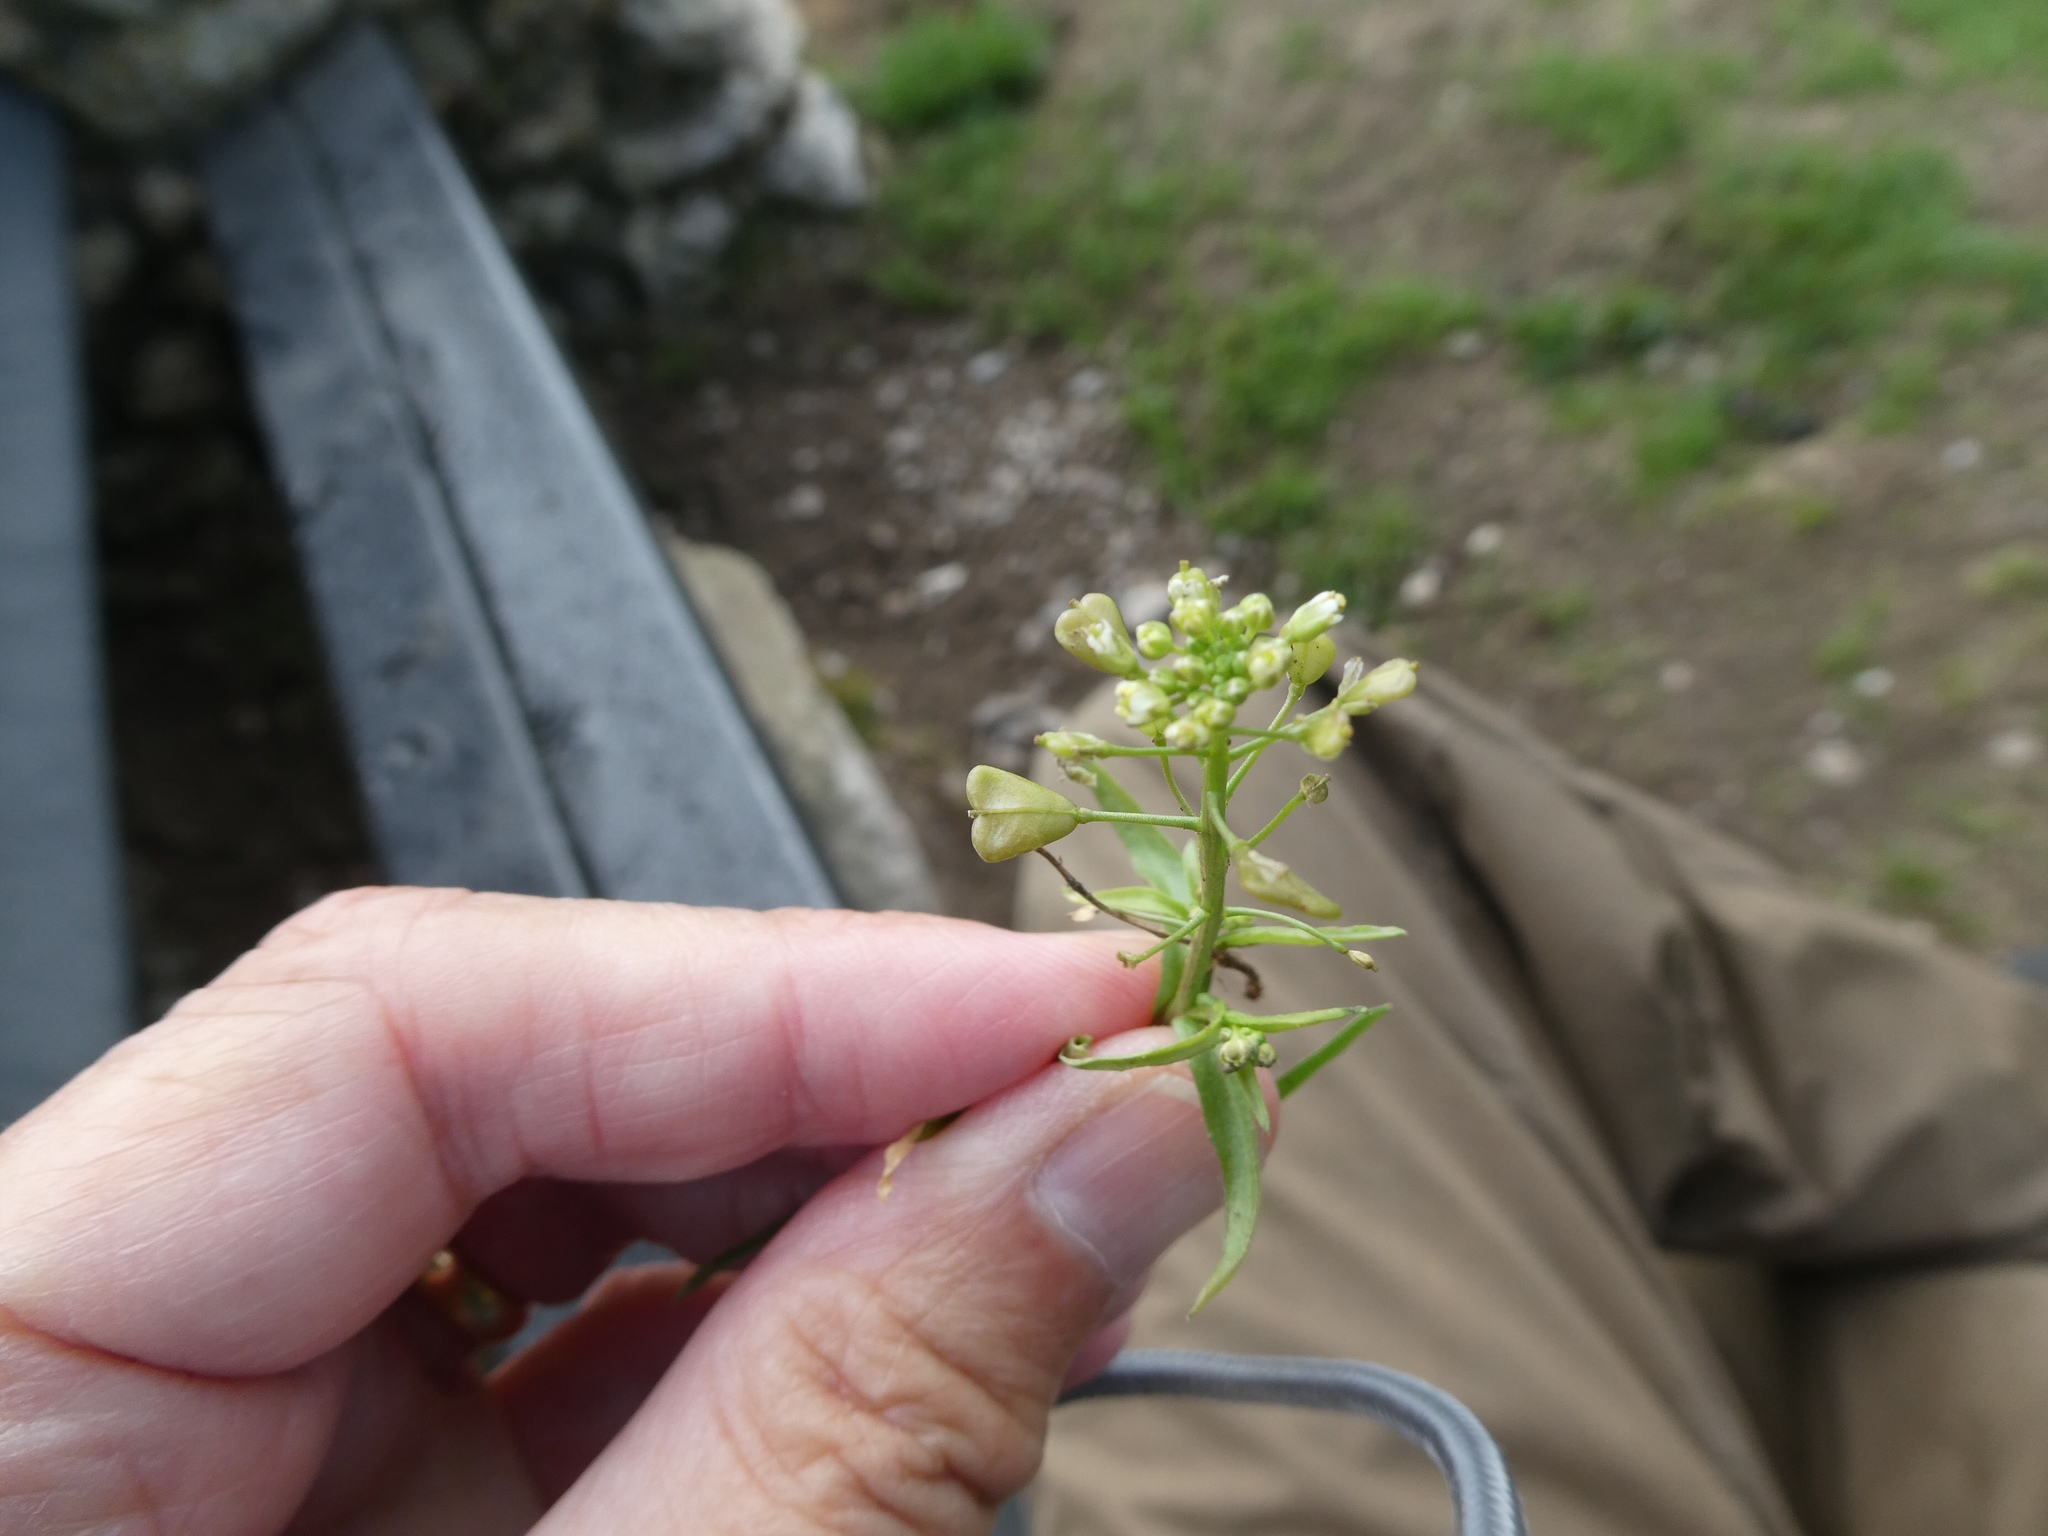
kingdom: Plantae
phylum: Tracheophyta
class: Magnoliopsida
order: Brassicales
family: Brassicaceae
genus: Capsella
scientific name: Capsella bursa-pastoris
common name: Shepherd's purse
